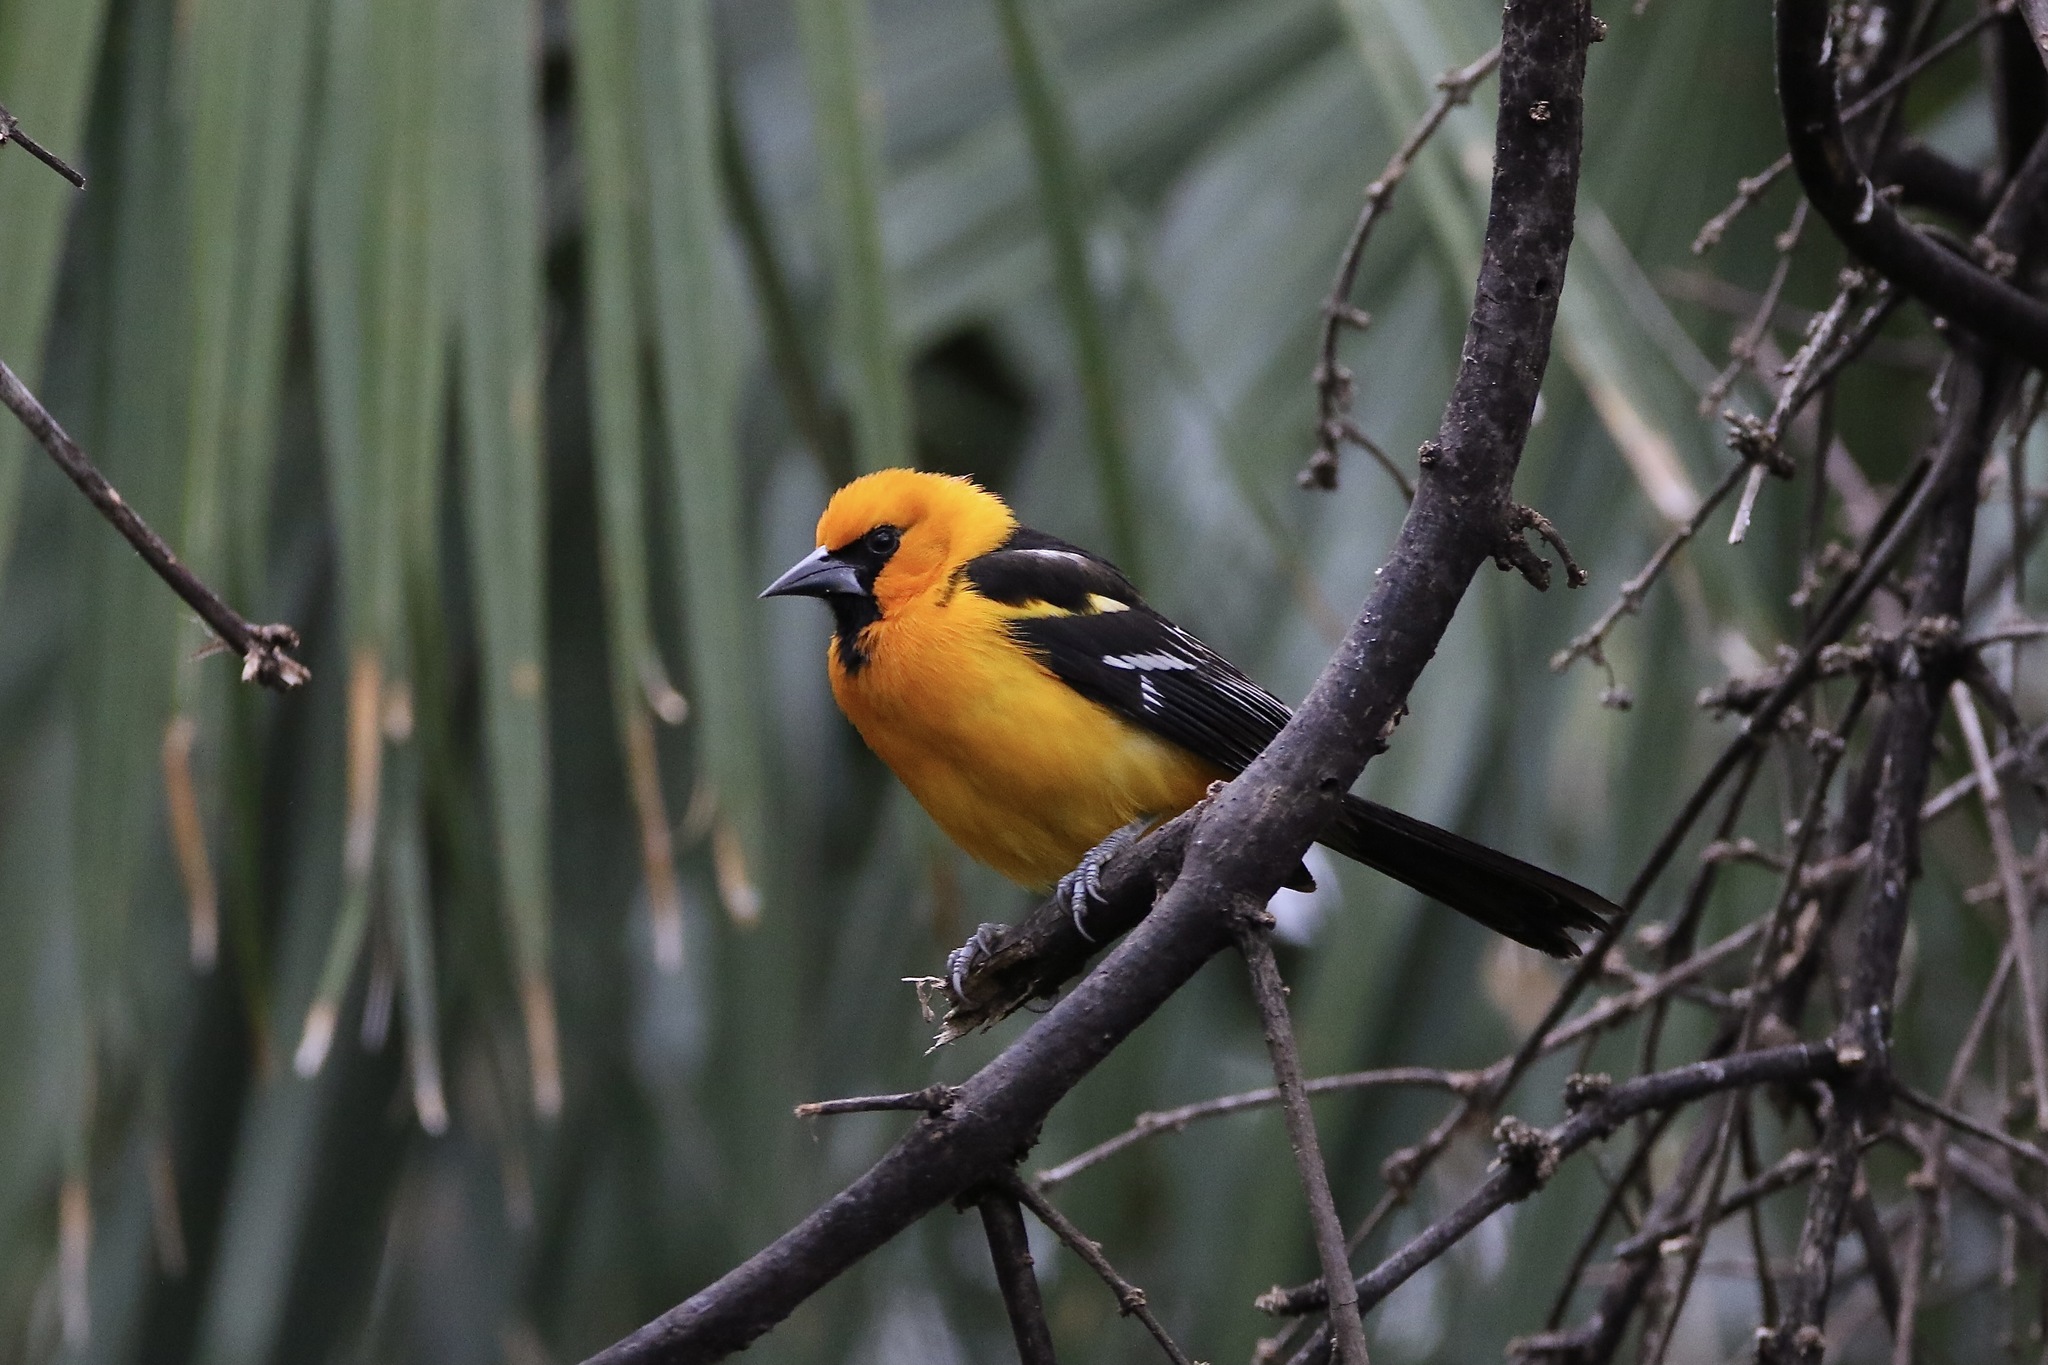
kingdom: Animalia
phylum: Chordata
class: Aves
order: Passeriformes
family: Icteridae
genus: Icterus
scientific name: Icterus gularis
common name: Altamira oriole
